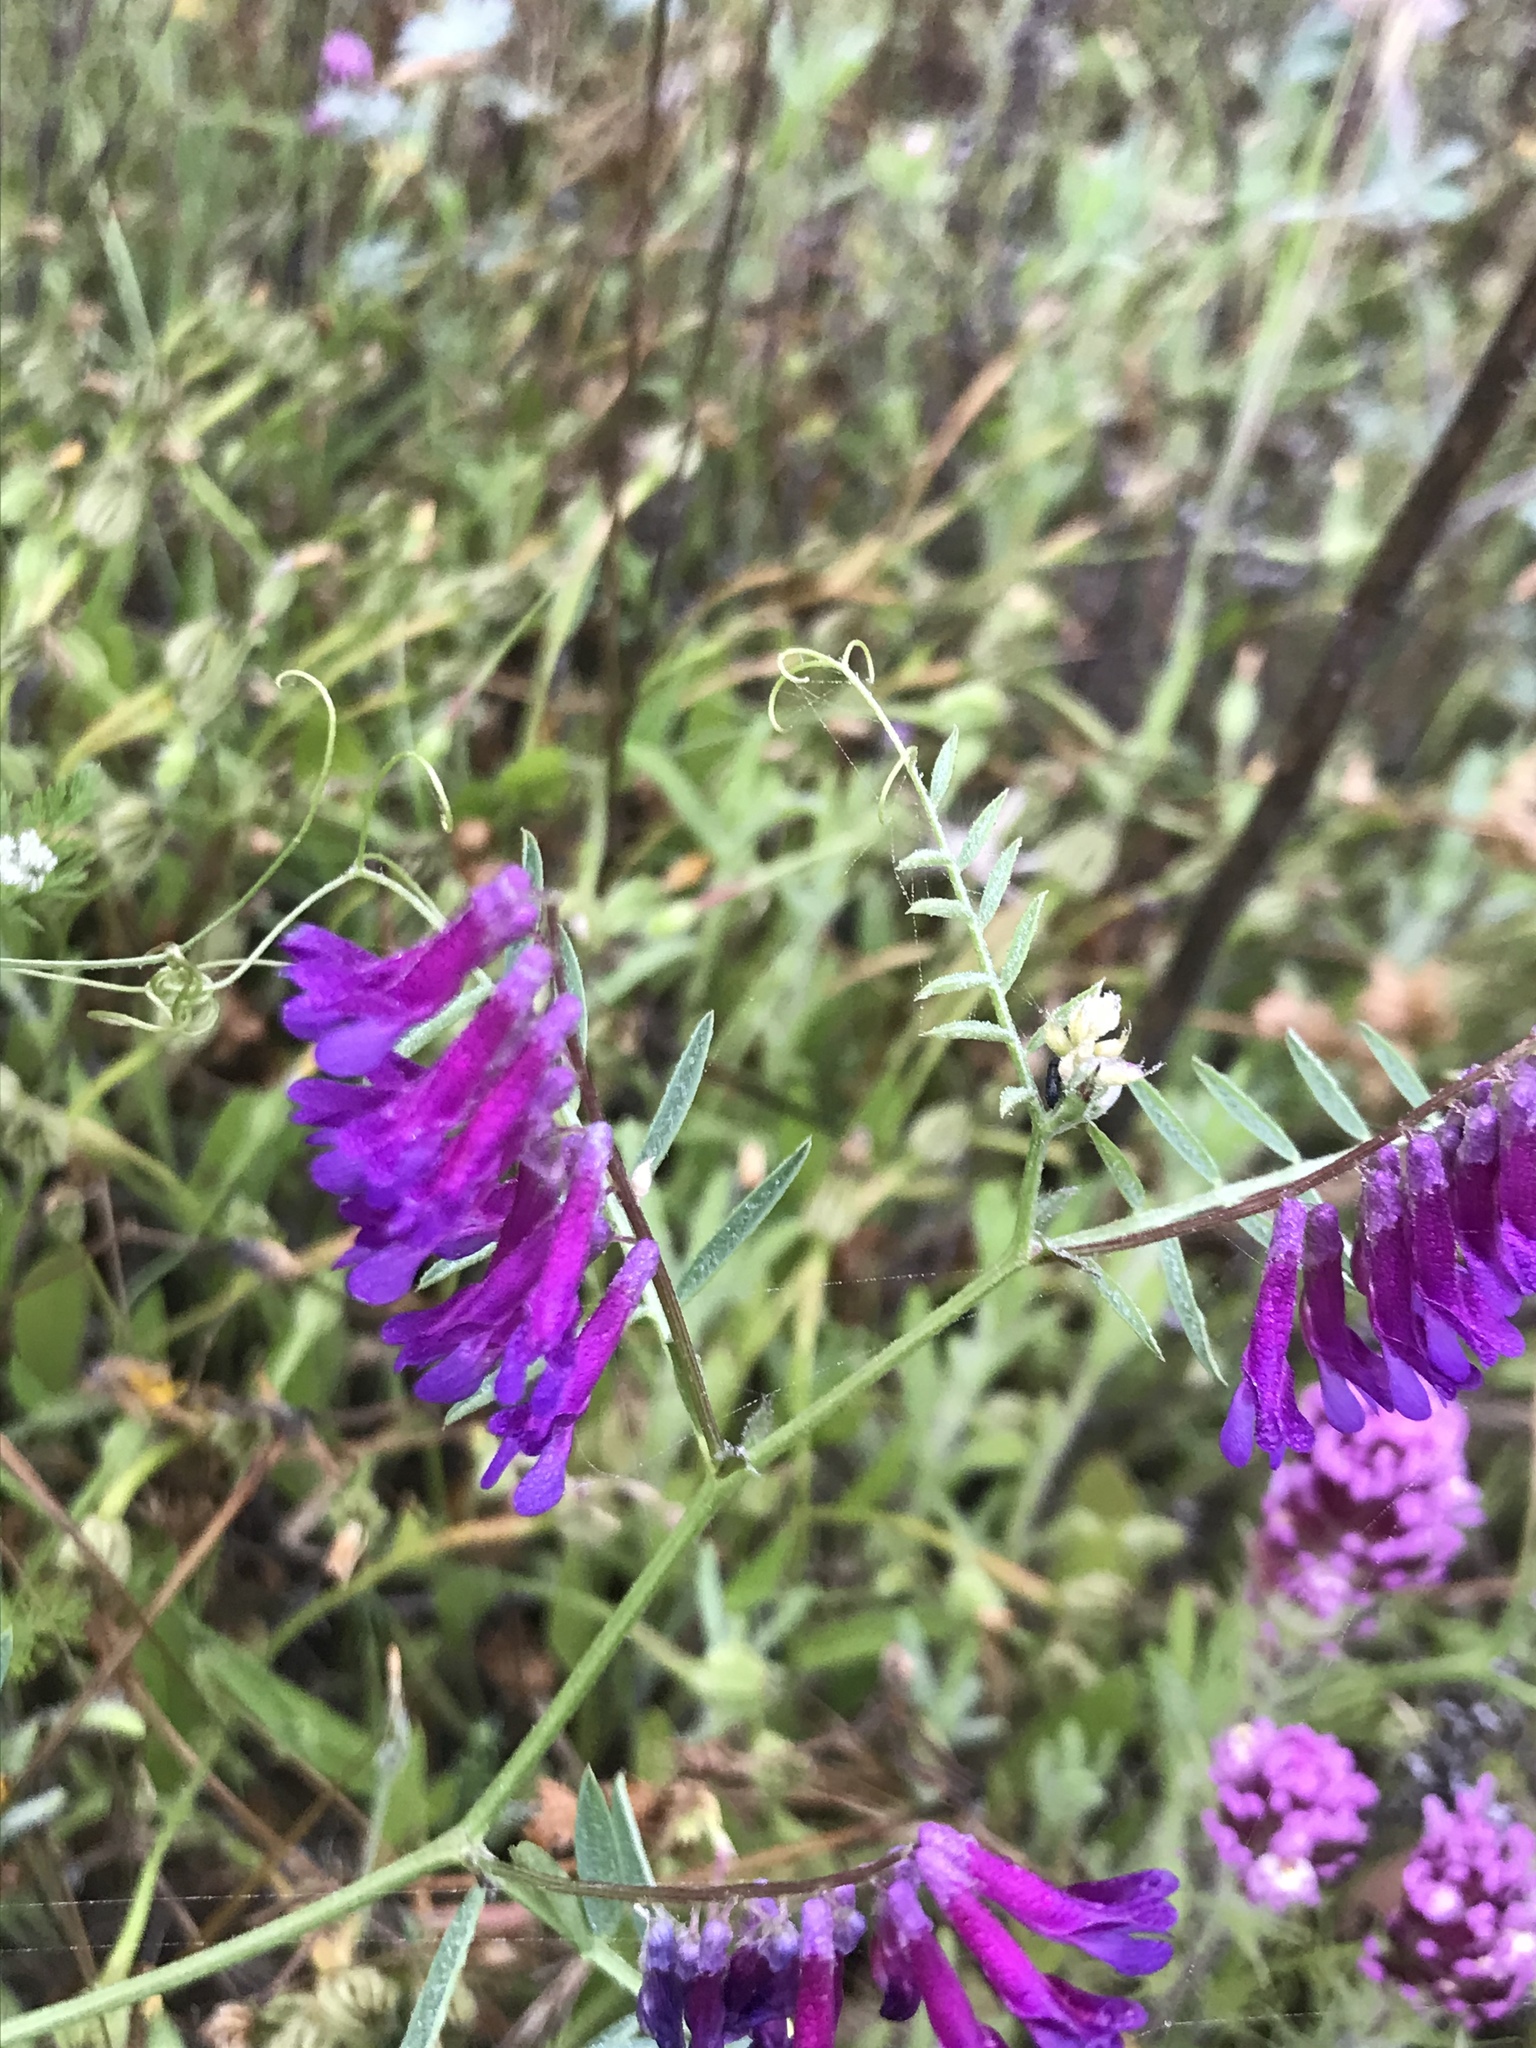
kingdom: Plantae
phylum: Tracheophyta
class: Magnoliopsida
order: Fabales
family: Fabaceae
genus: Vicia
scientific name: Vicia villosa
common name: Fodder vetch
